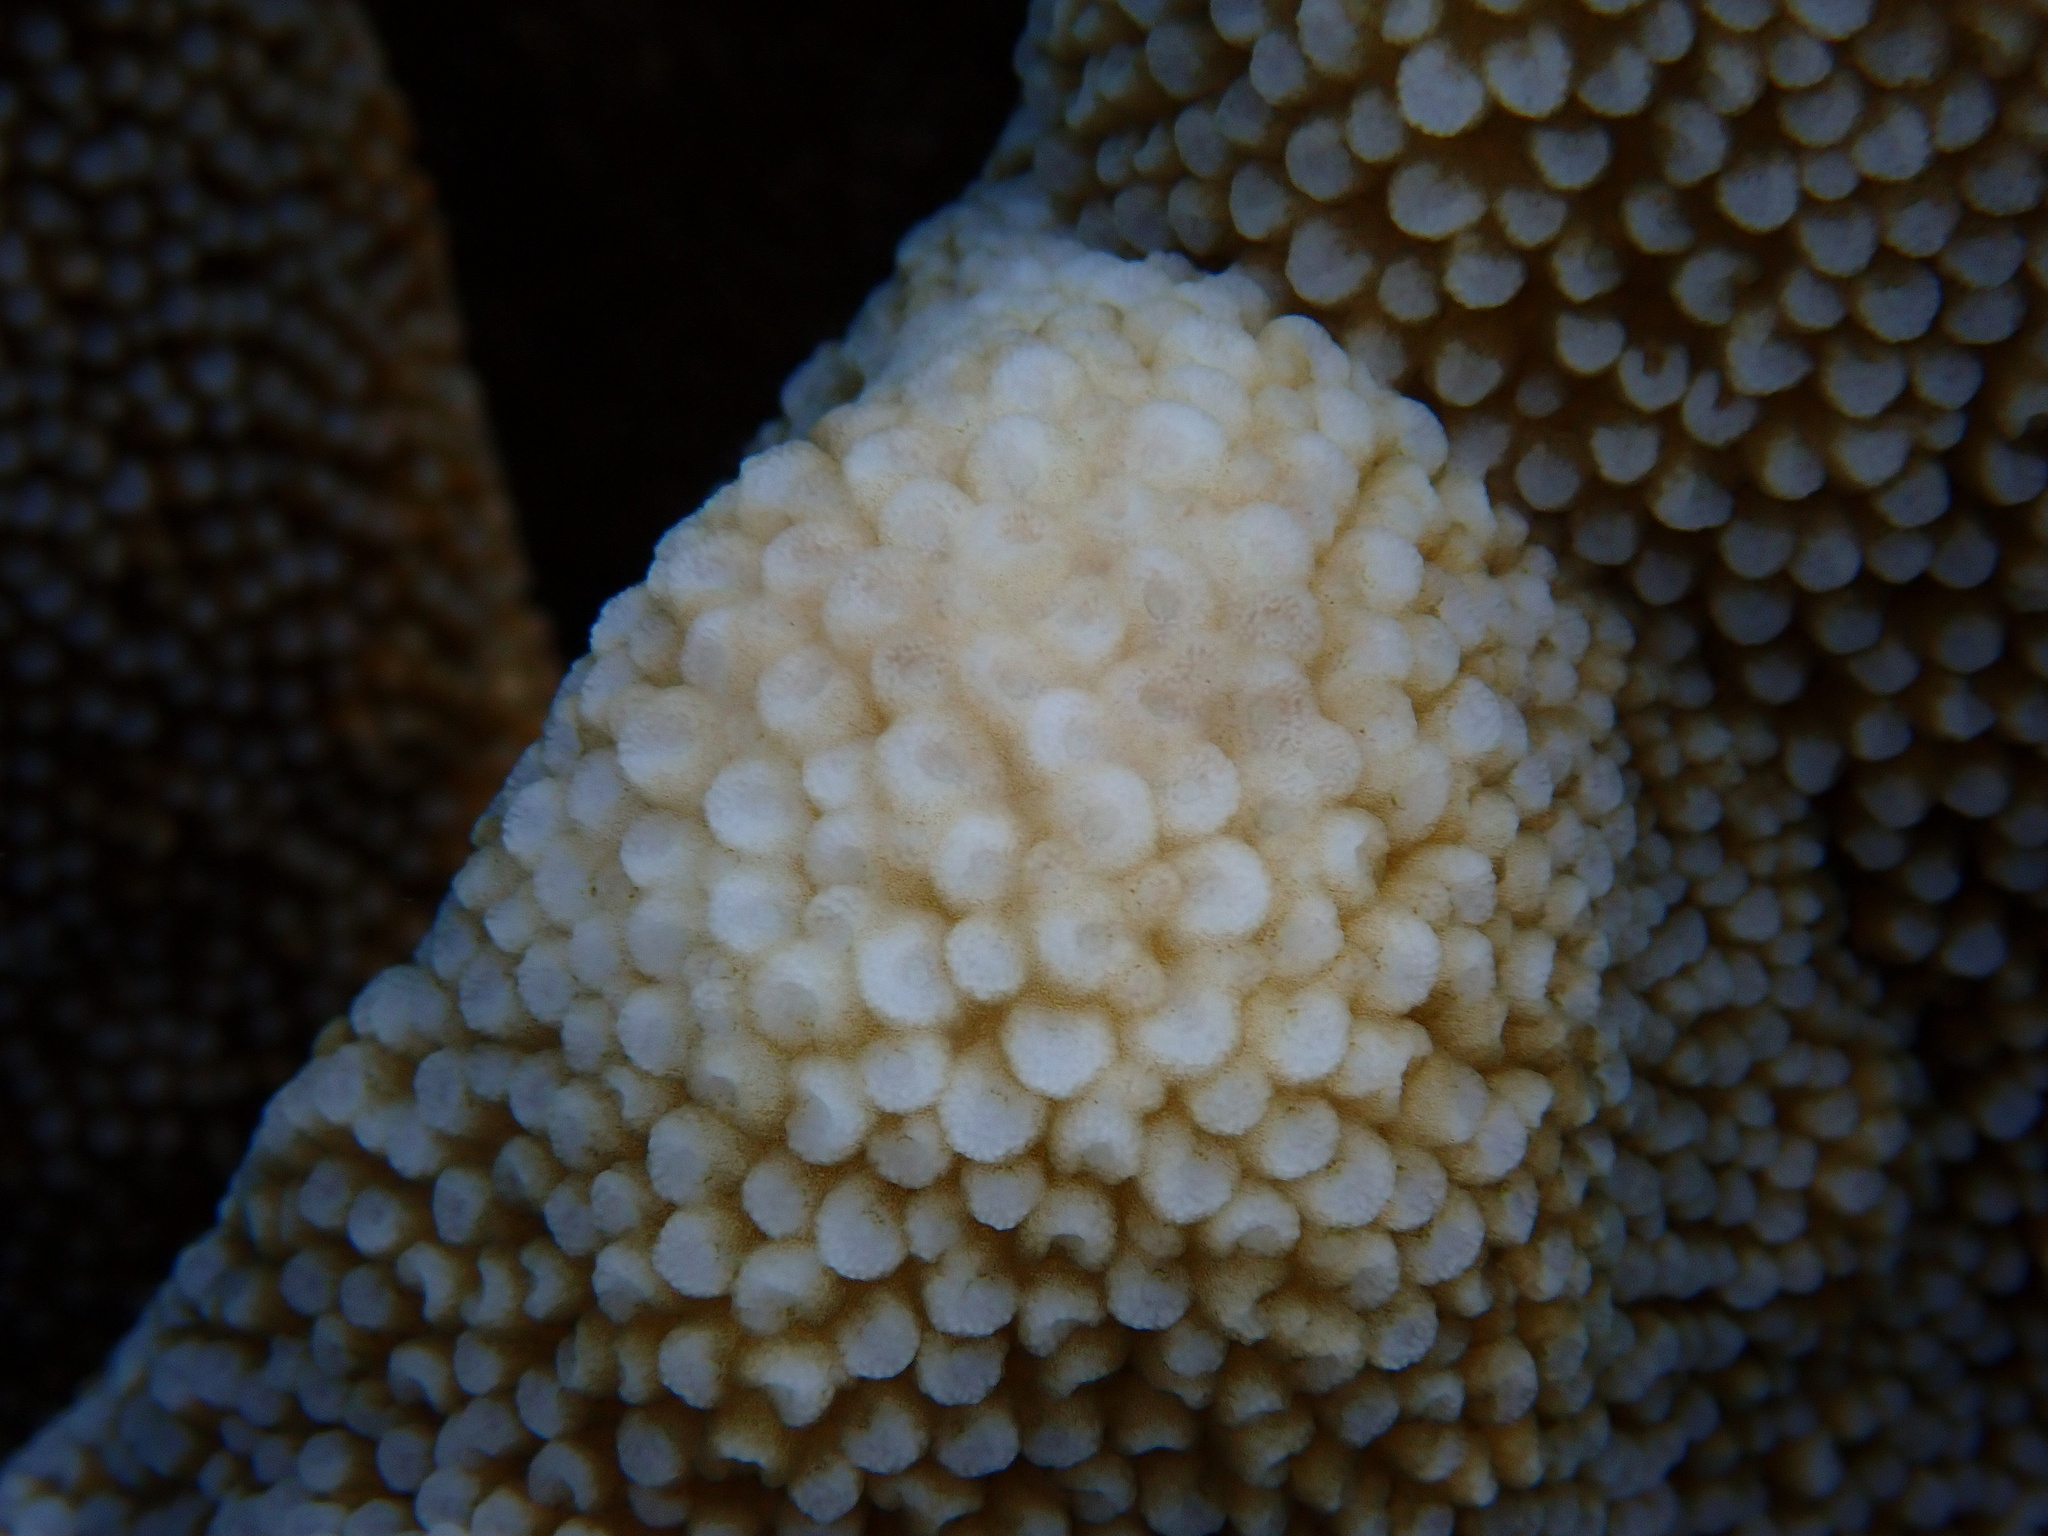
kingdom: Animalia
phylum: Cnidaria
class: Anthozoa
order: Scleractinia
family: Acroporidae
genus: Isopora
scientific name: Isopora palifera
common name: Catch bowl coral
